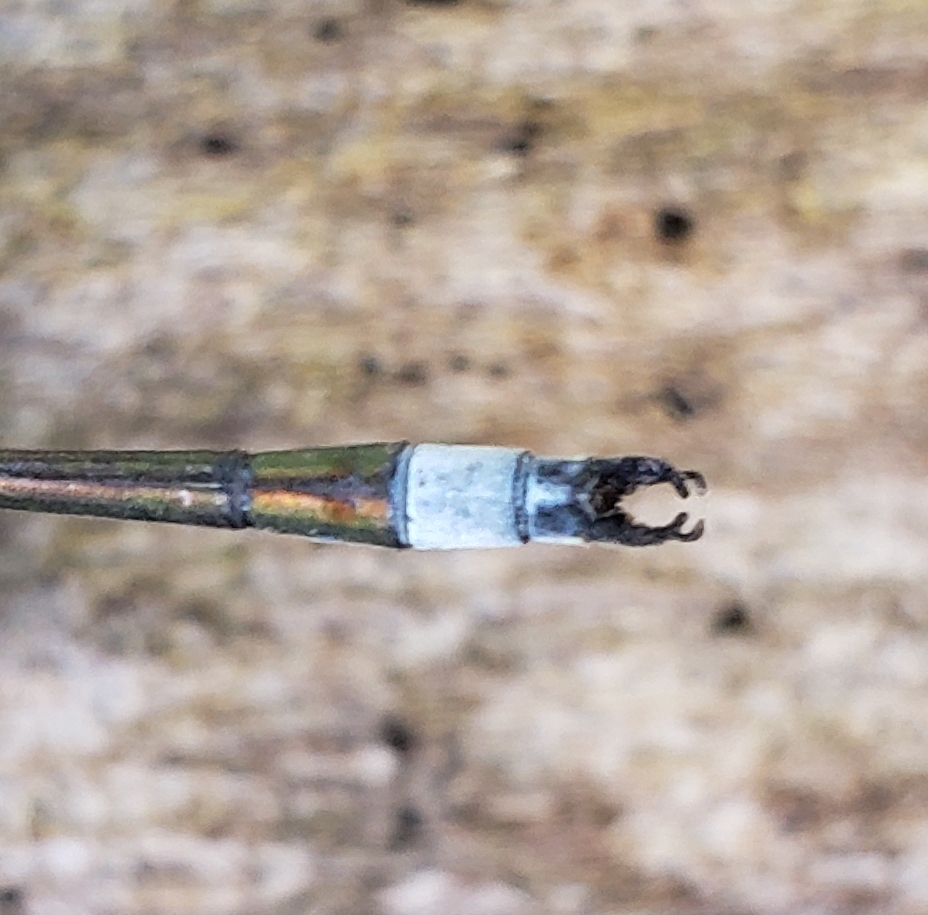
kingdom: Animalia
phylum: Arthropoda
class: Insecta
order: Odonata
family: Lestidae
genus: Lestes
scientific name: Lestes inaequalis
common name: Elegant spreadwing
